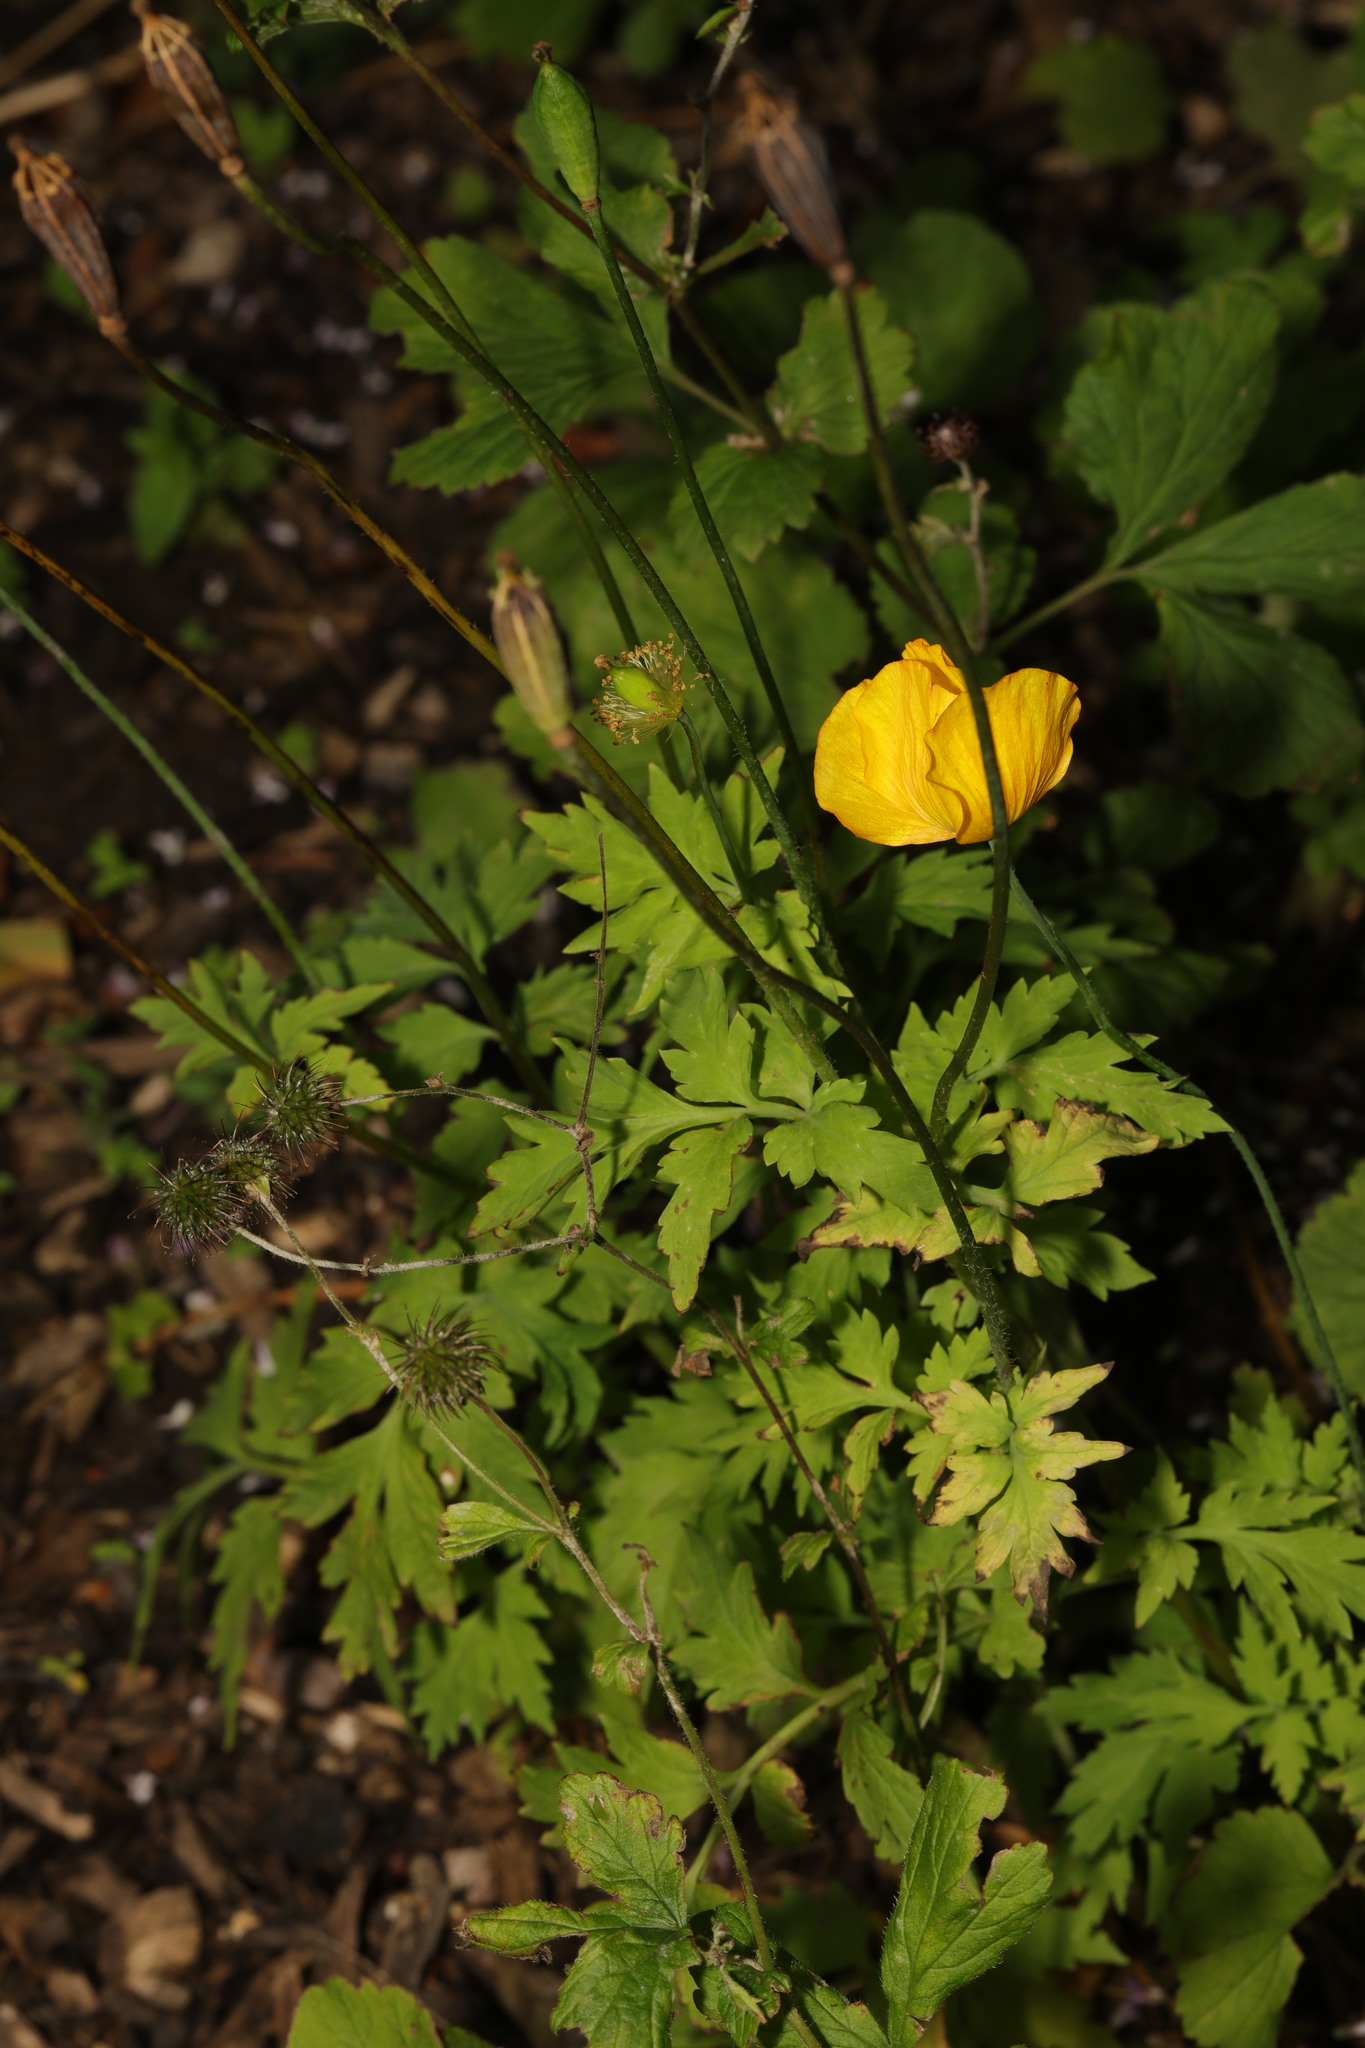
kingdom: Plantae
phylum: Tracheophyta
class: Magnoliopsida
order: Ranunculales
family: Papaveraceae
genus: Papaver
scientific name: Papaver cambricum
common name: Poppy
